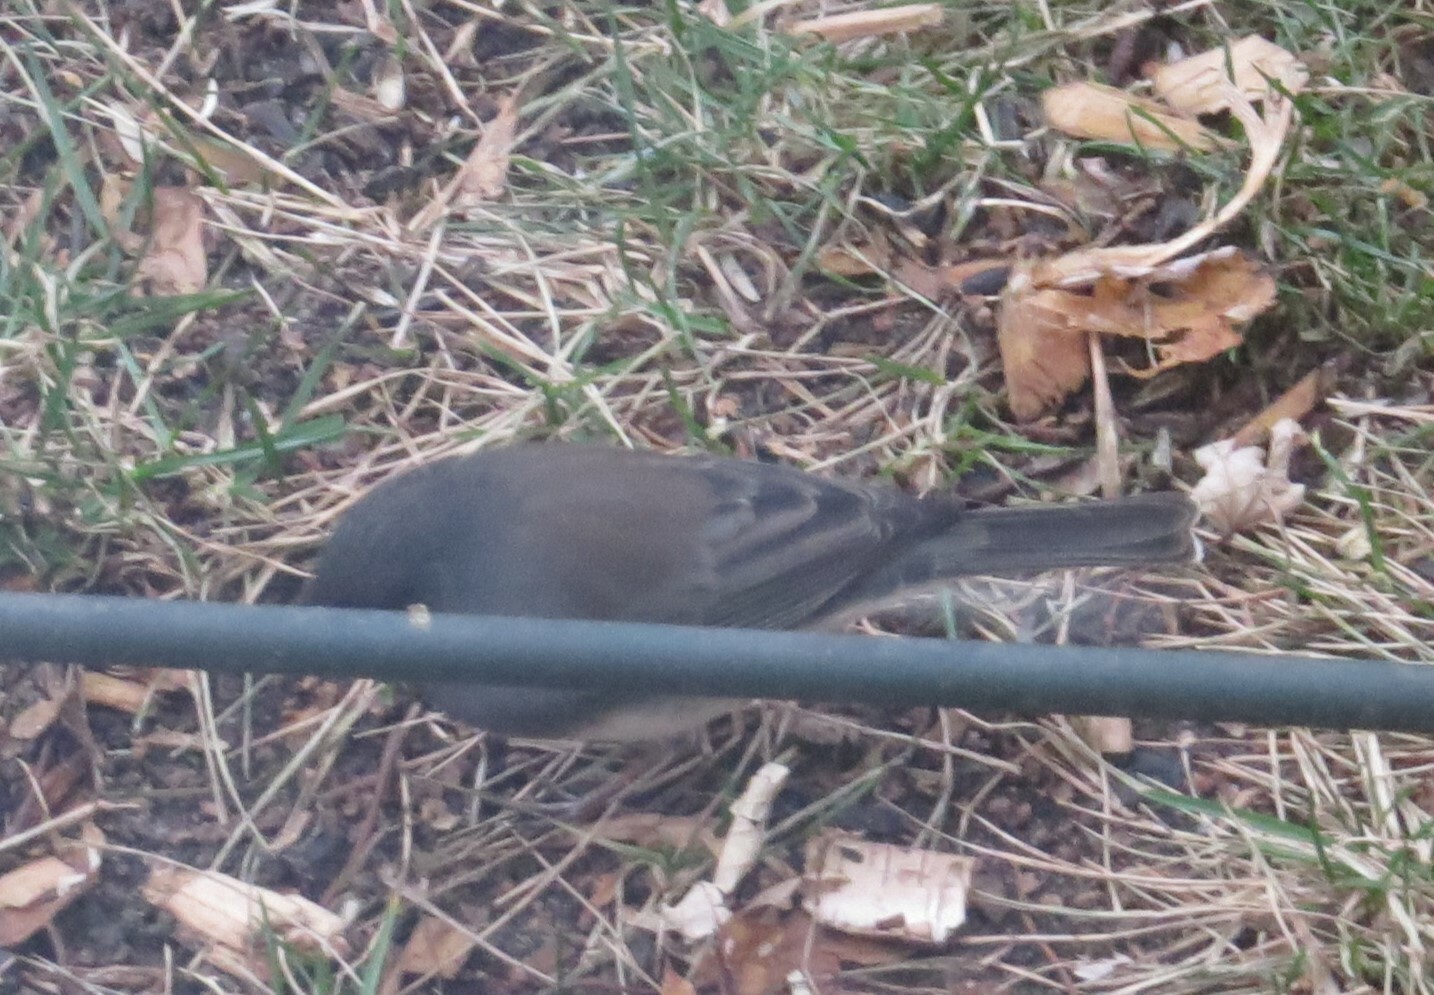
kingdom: Animalia
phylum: Chordata
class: Aves
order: Passeriformes
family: Passerellidae
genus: Junco
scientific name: Junco hyemalis
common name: Dark-eyed junco
